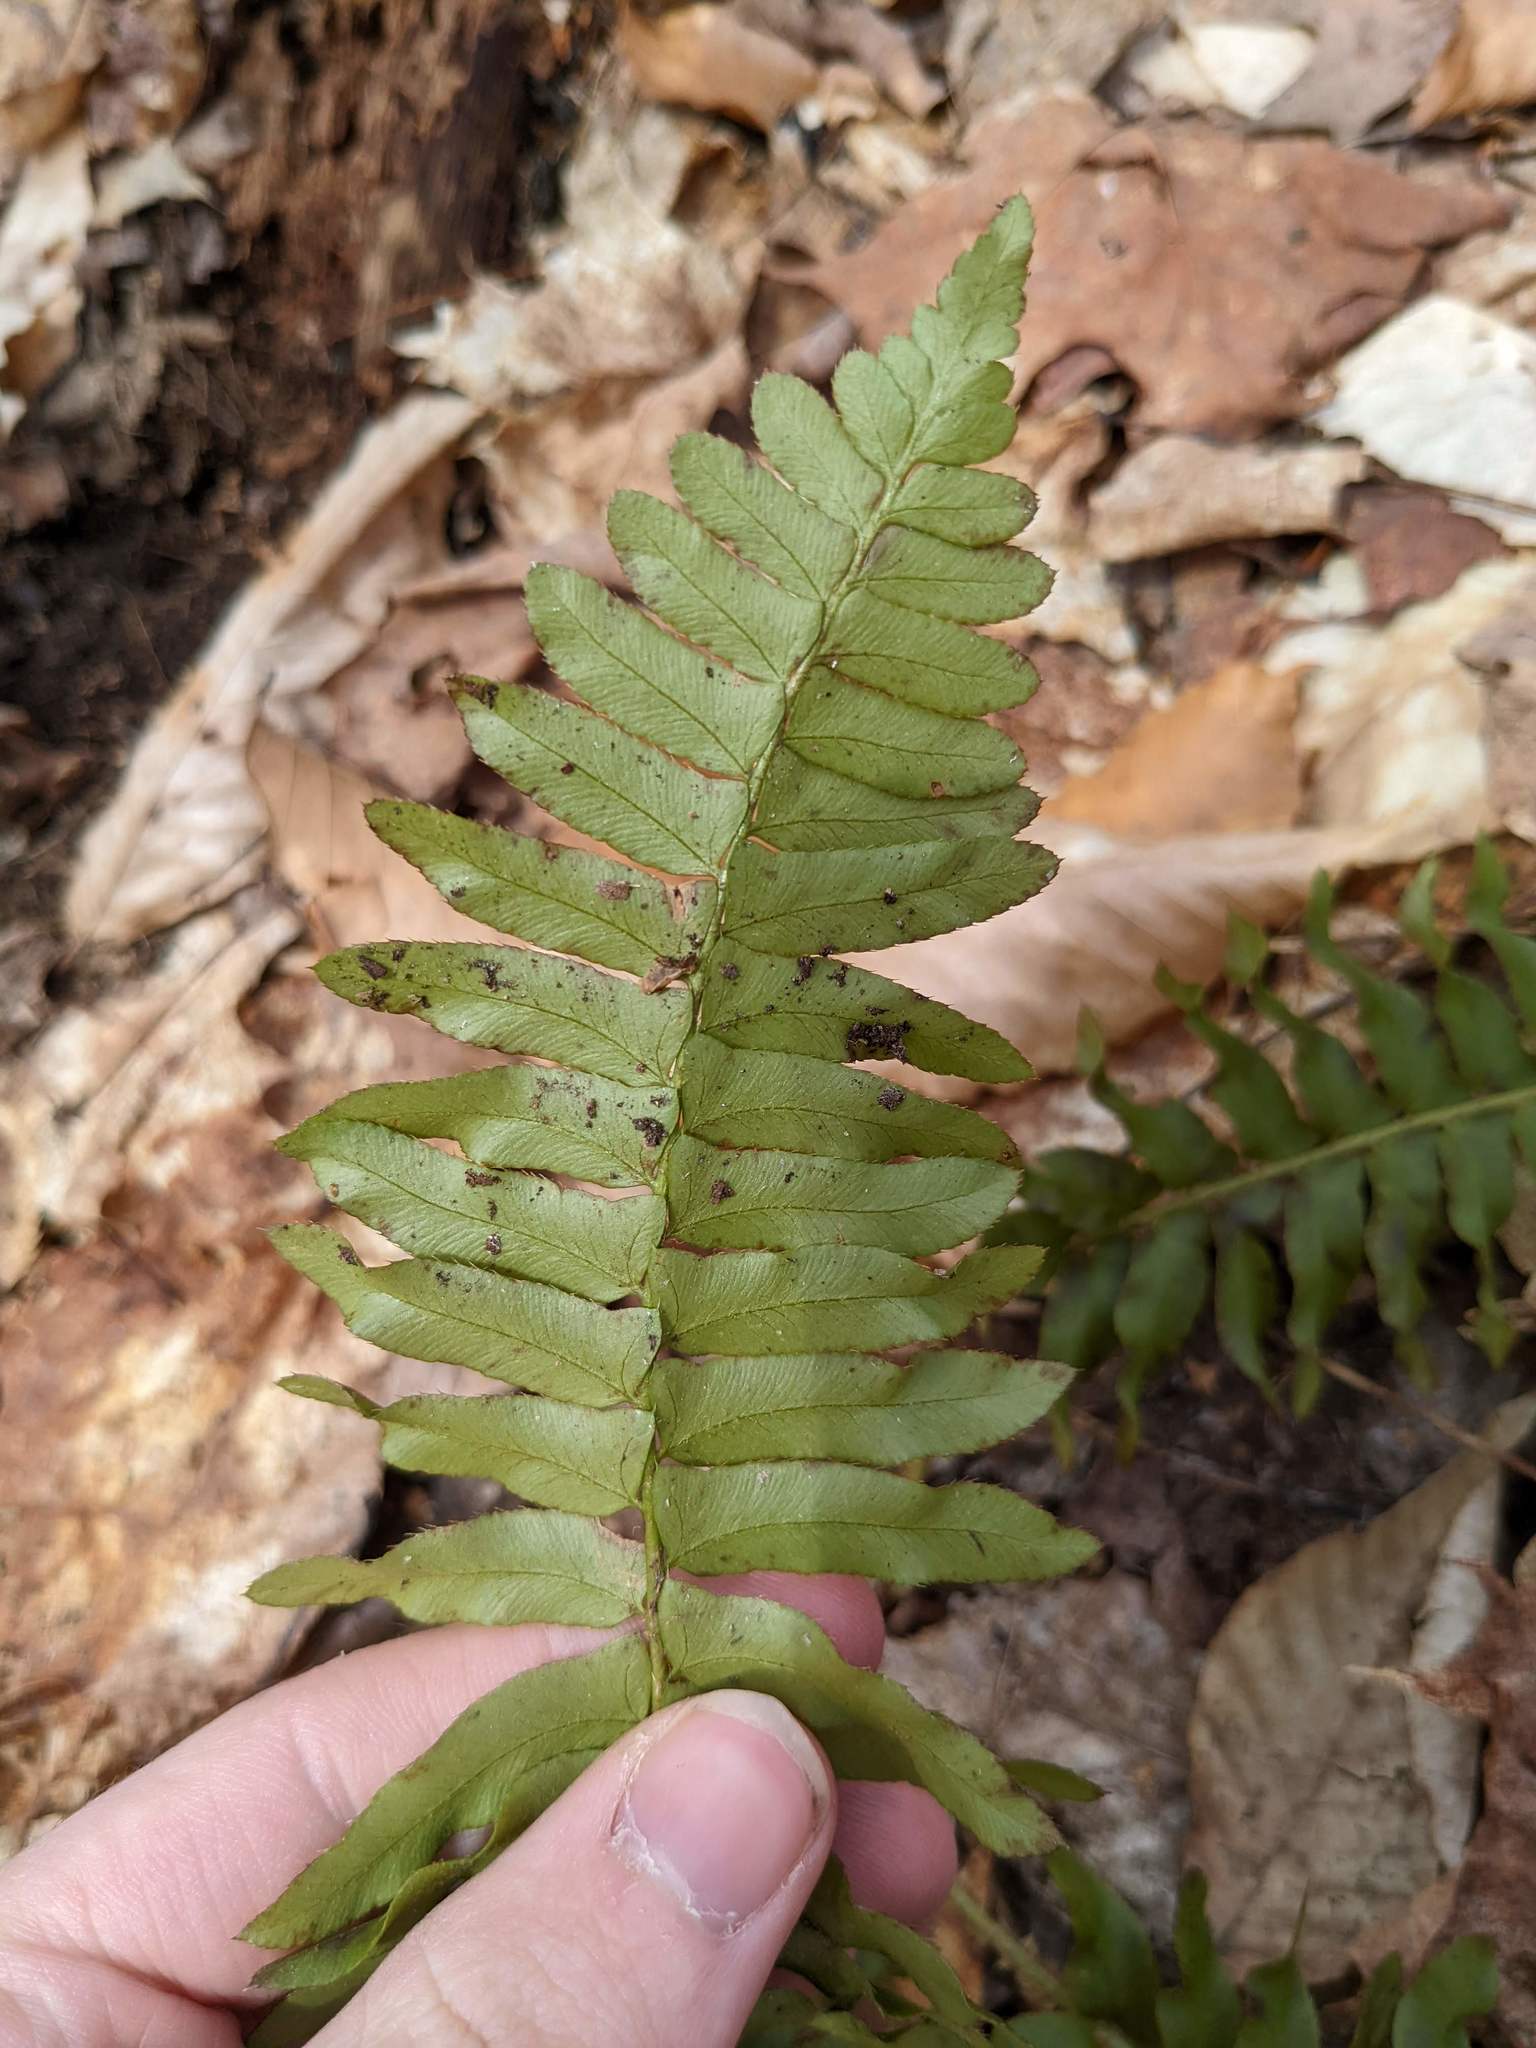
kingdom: Plantae
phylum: Tracheophyta
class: Polypodiopsida
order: Polypodiales
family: Dryopteridaceae
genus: Polystichum
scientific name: Polystichum acrostichoides
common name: Christmas fern
